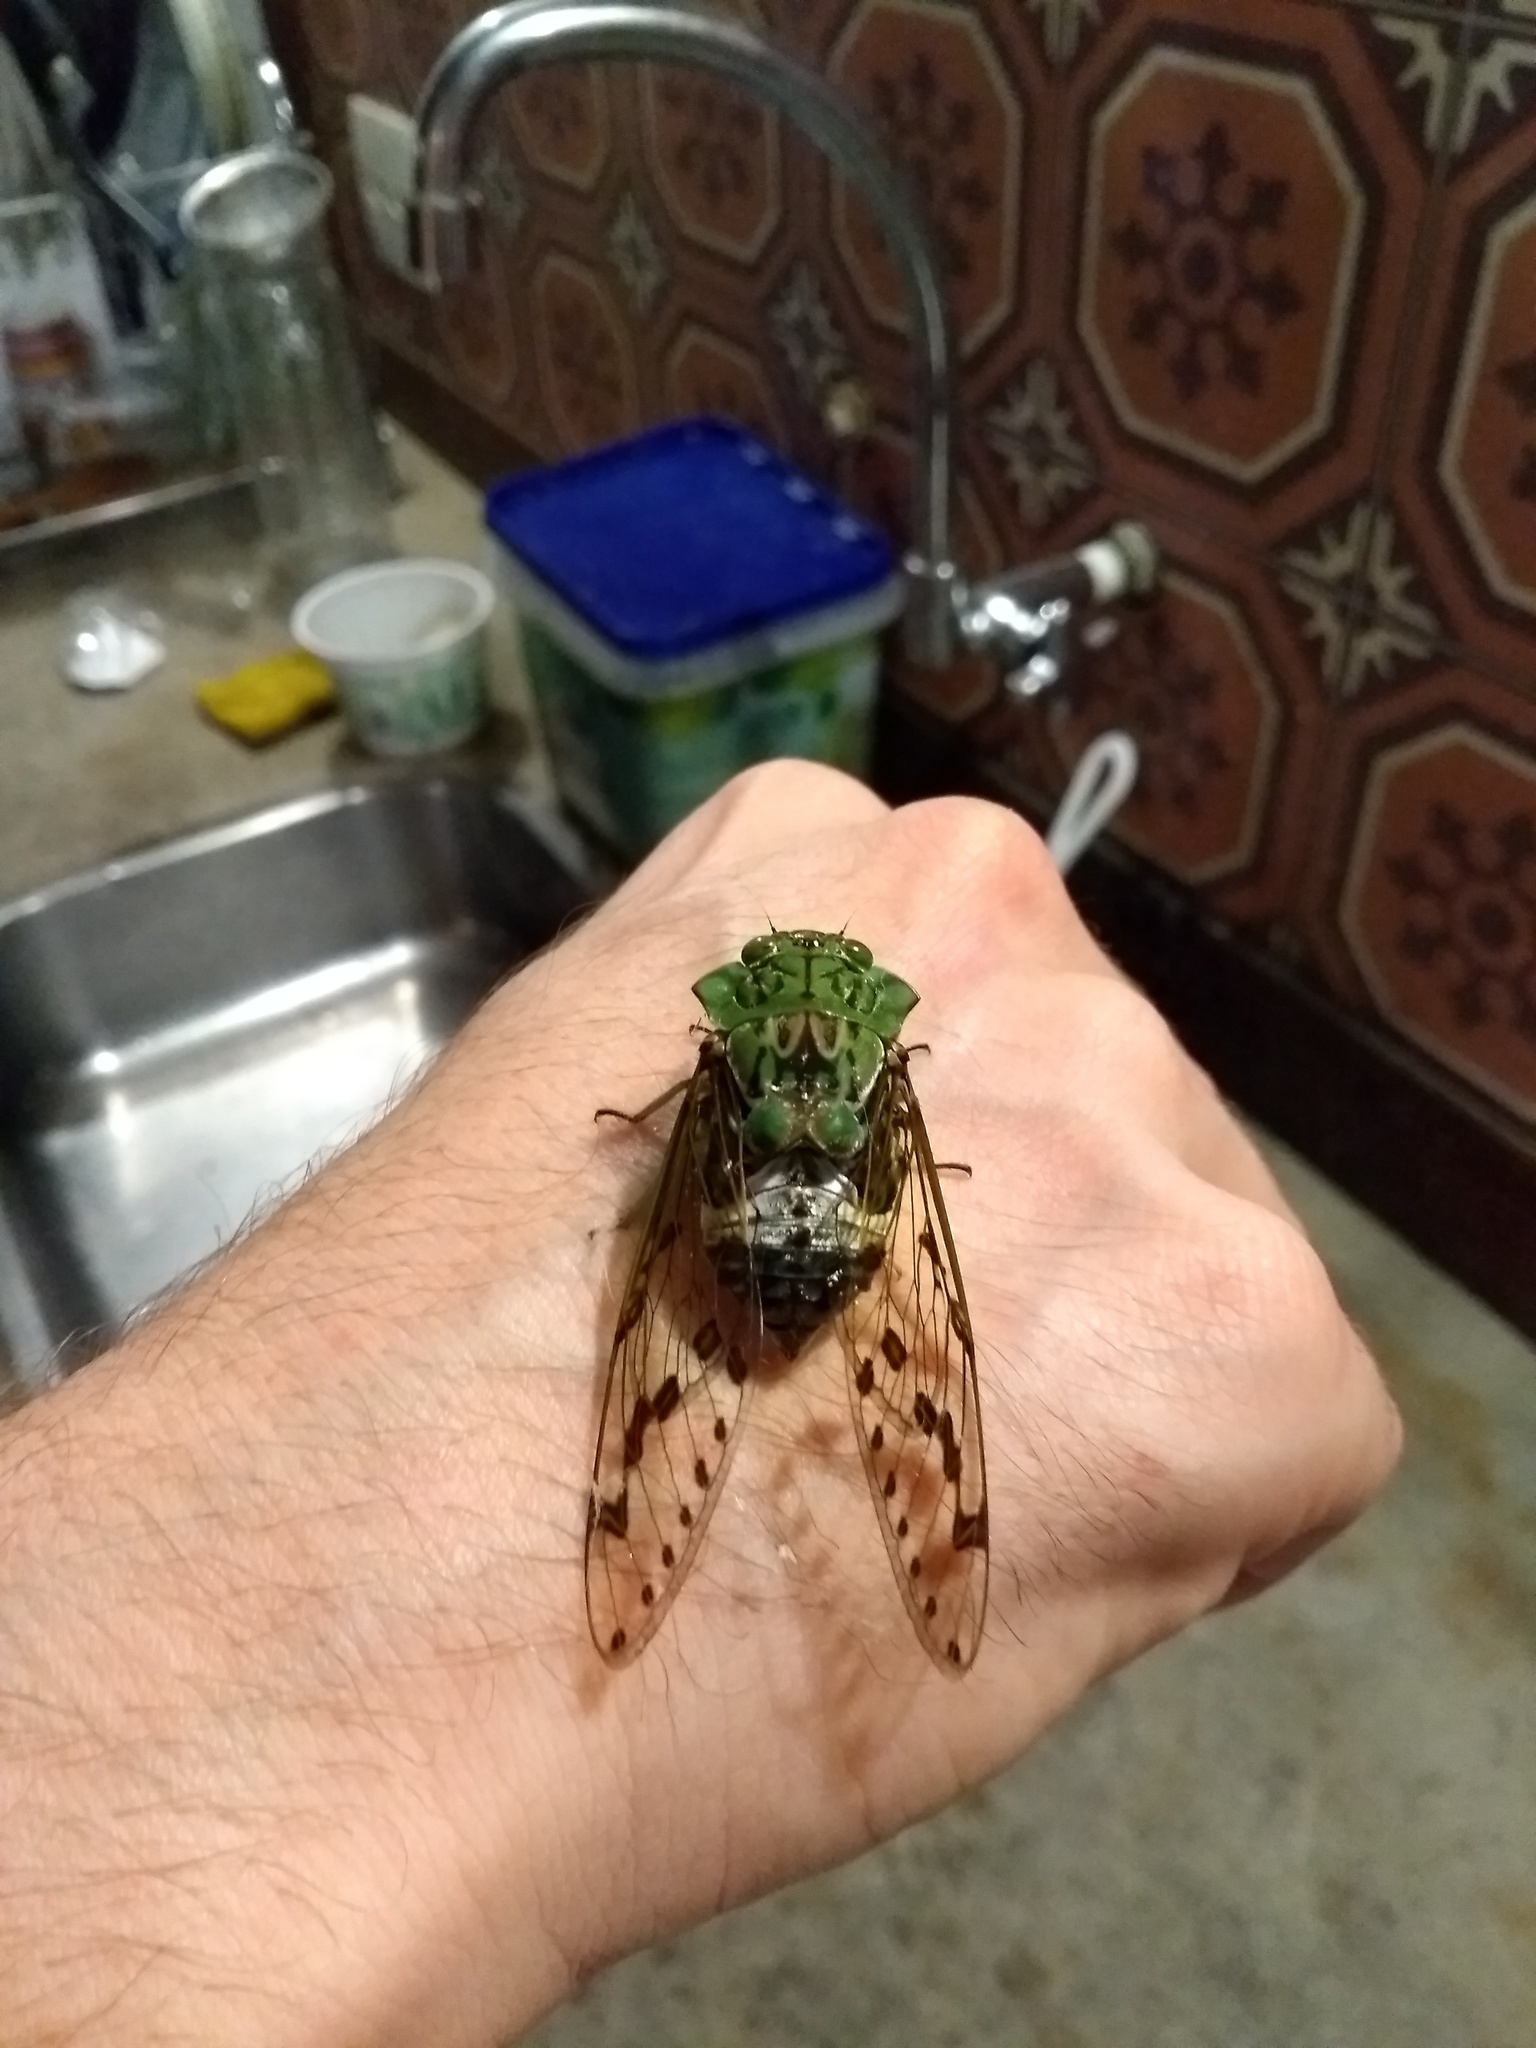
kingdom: Animalia
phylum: Arthropoda
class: Insecta
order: Hemiptera
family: Cicadidae
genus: Zammara
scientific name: Zammara tympanum
